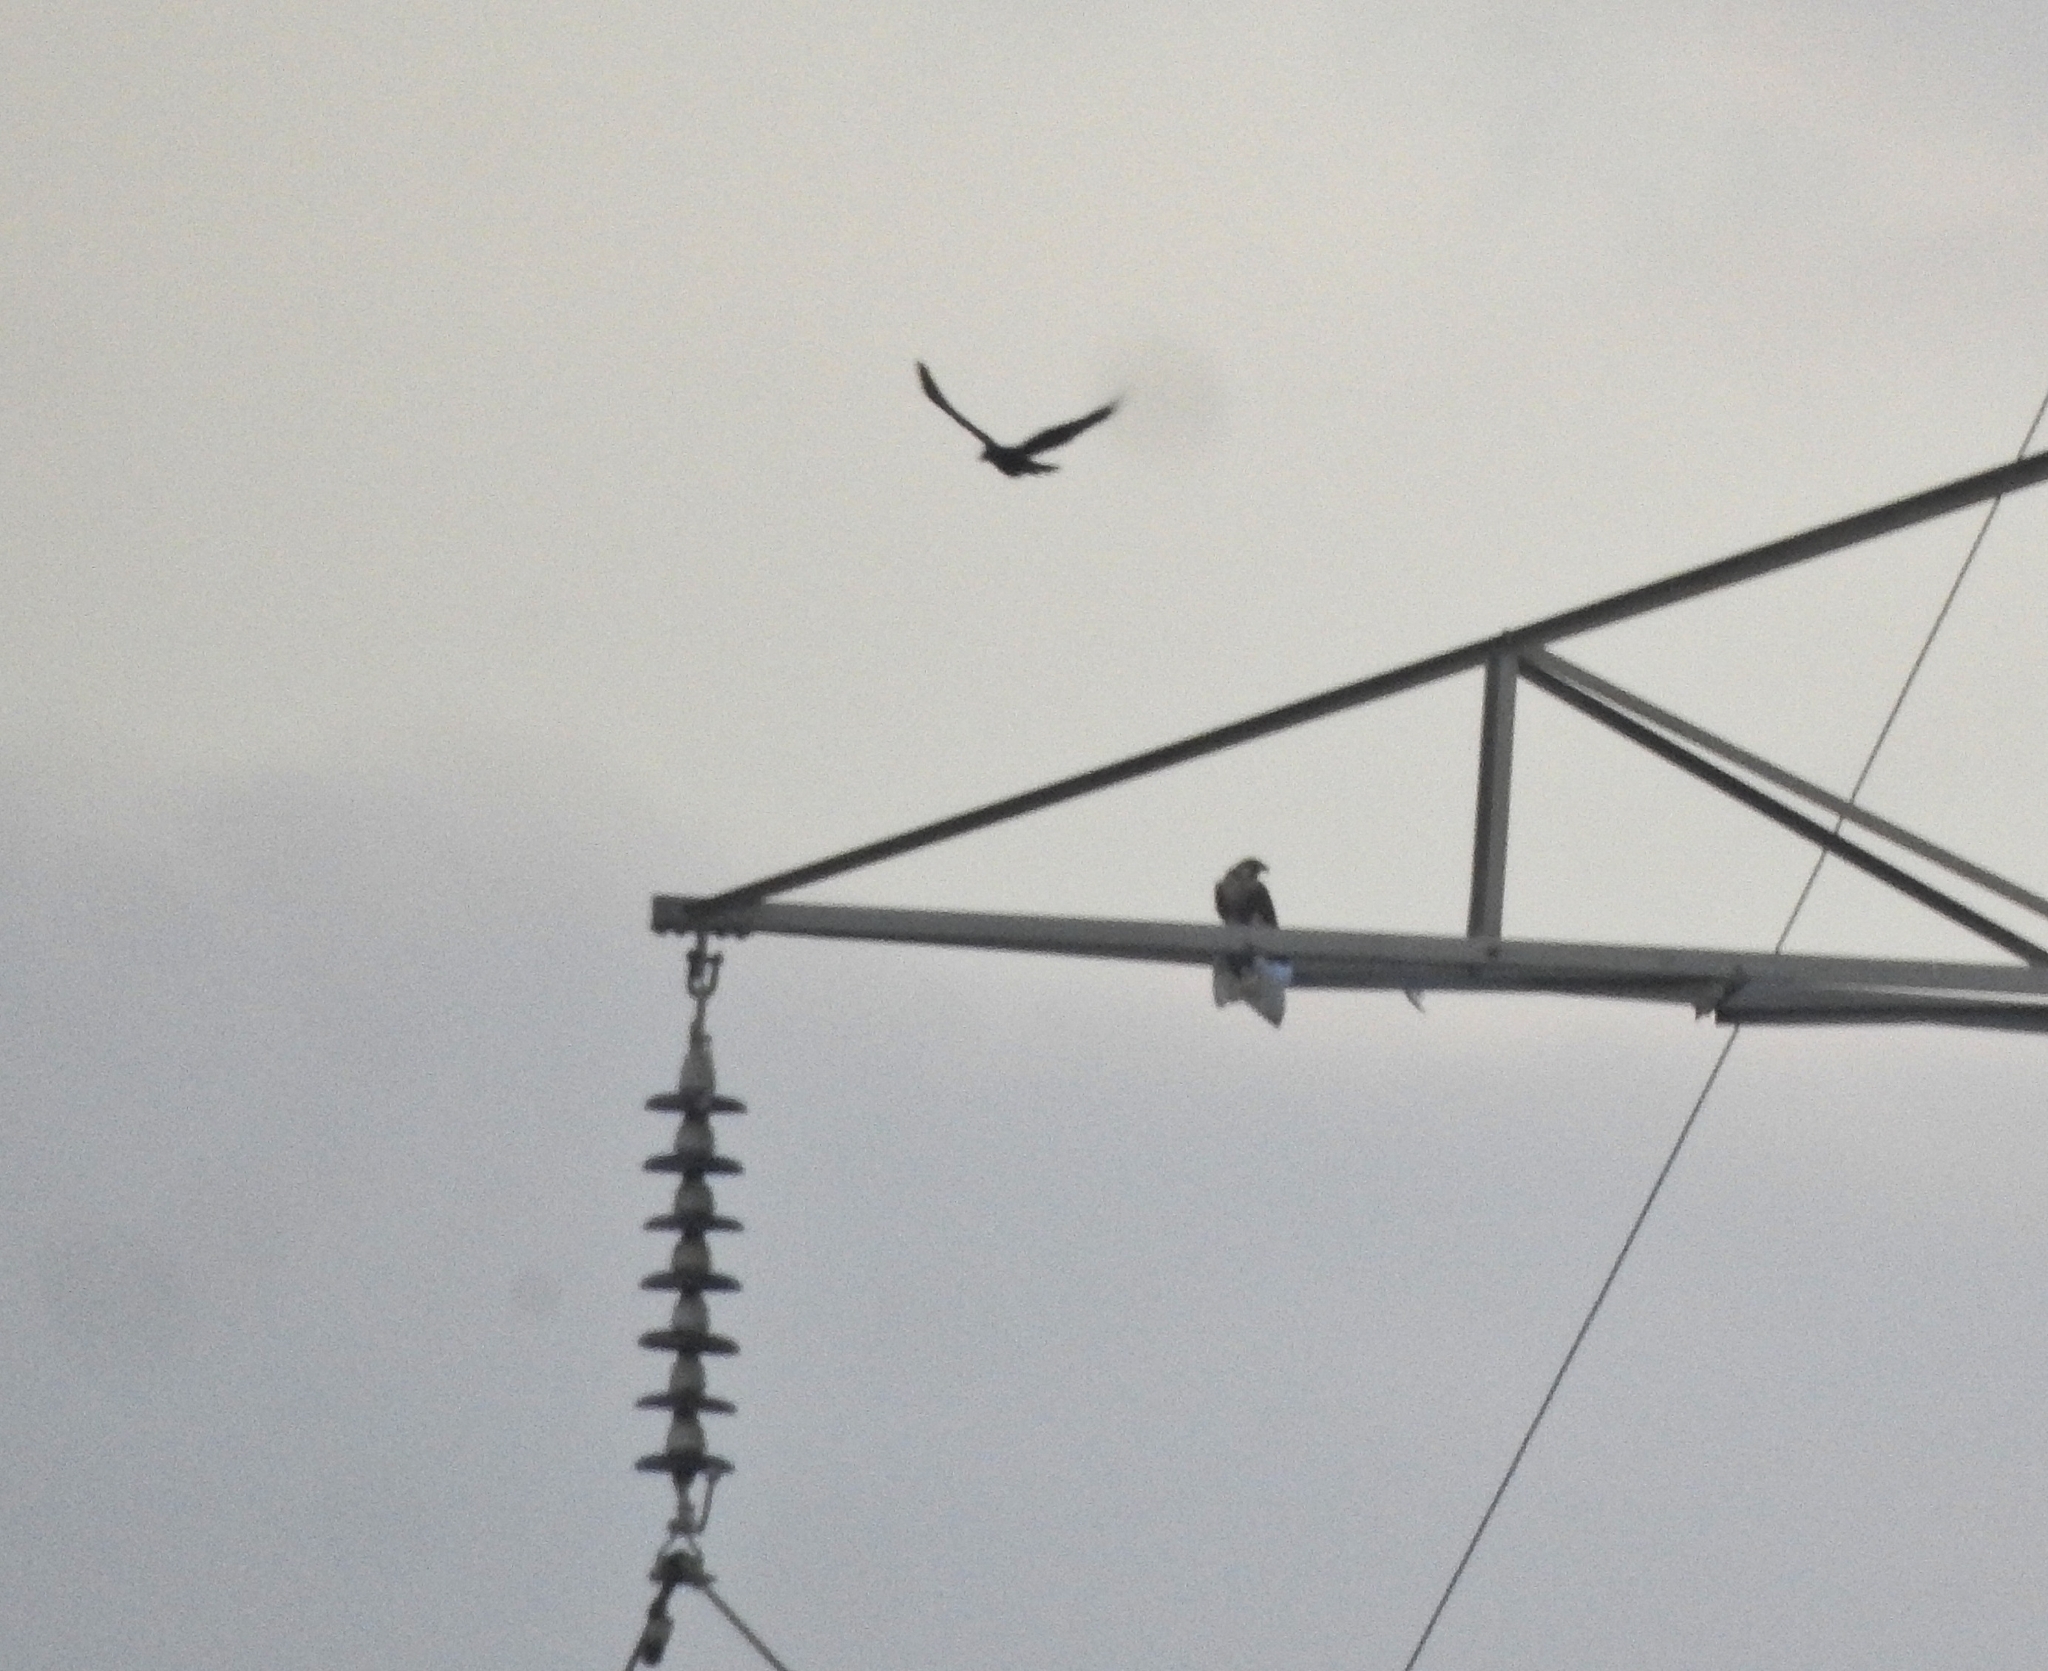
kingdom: Animalia
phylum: Chordata
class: Aves
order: Falconiformes
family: Falconidae
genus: Falco
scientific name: Falco peregrinus
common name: Peregrine falcon
